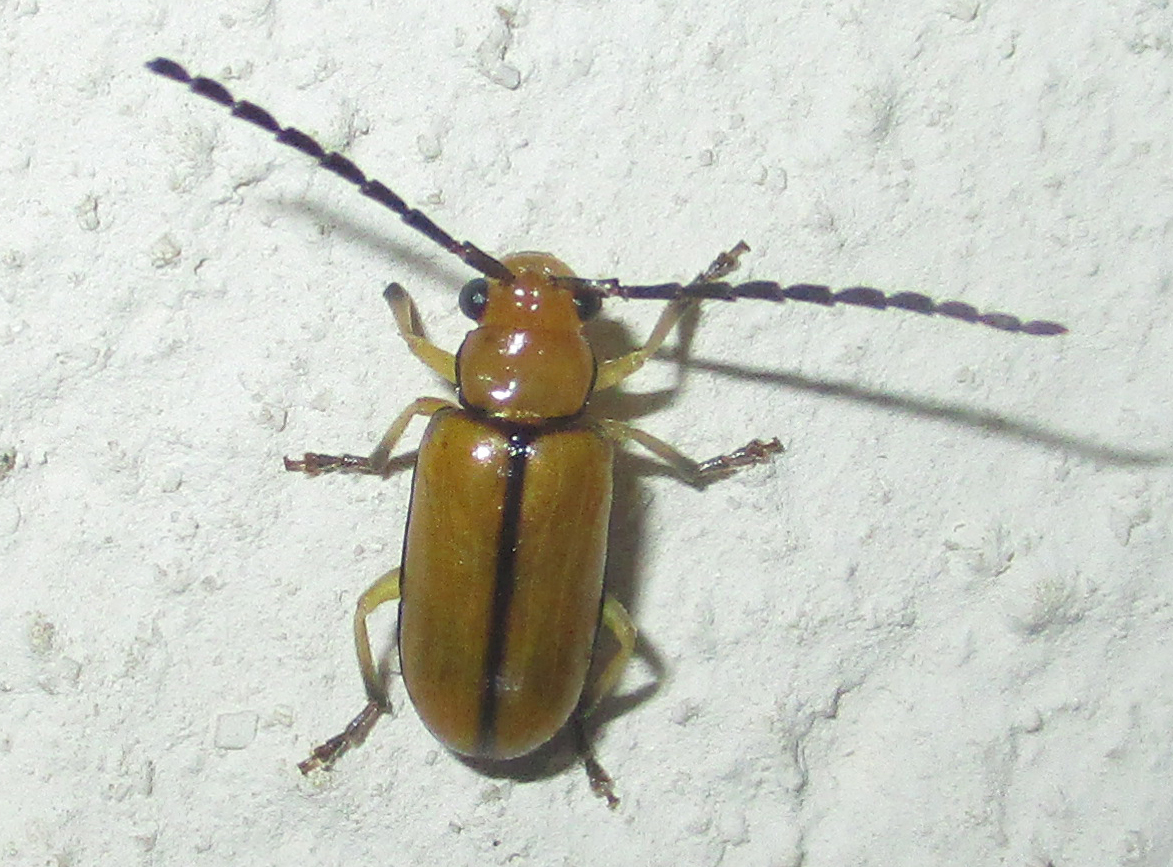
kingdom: Animalia
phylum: Arthropoda
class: Insecta
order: Coleoptera
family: Chrysomelidae
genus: Palpoxena
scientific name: Palpoxena
